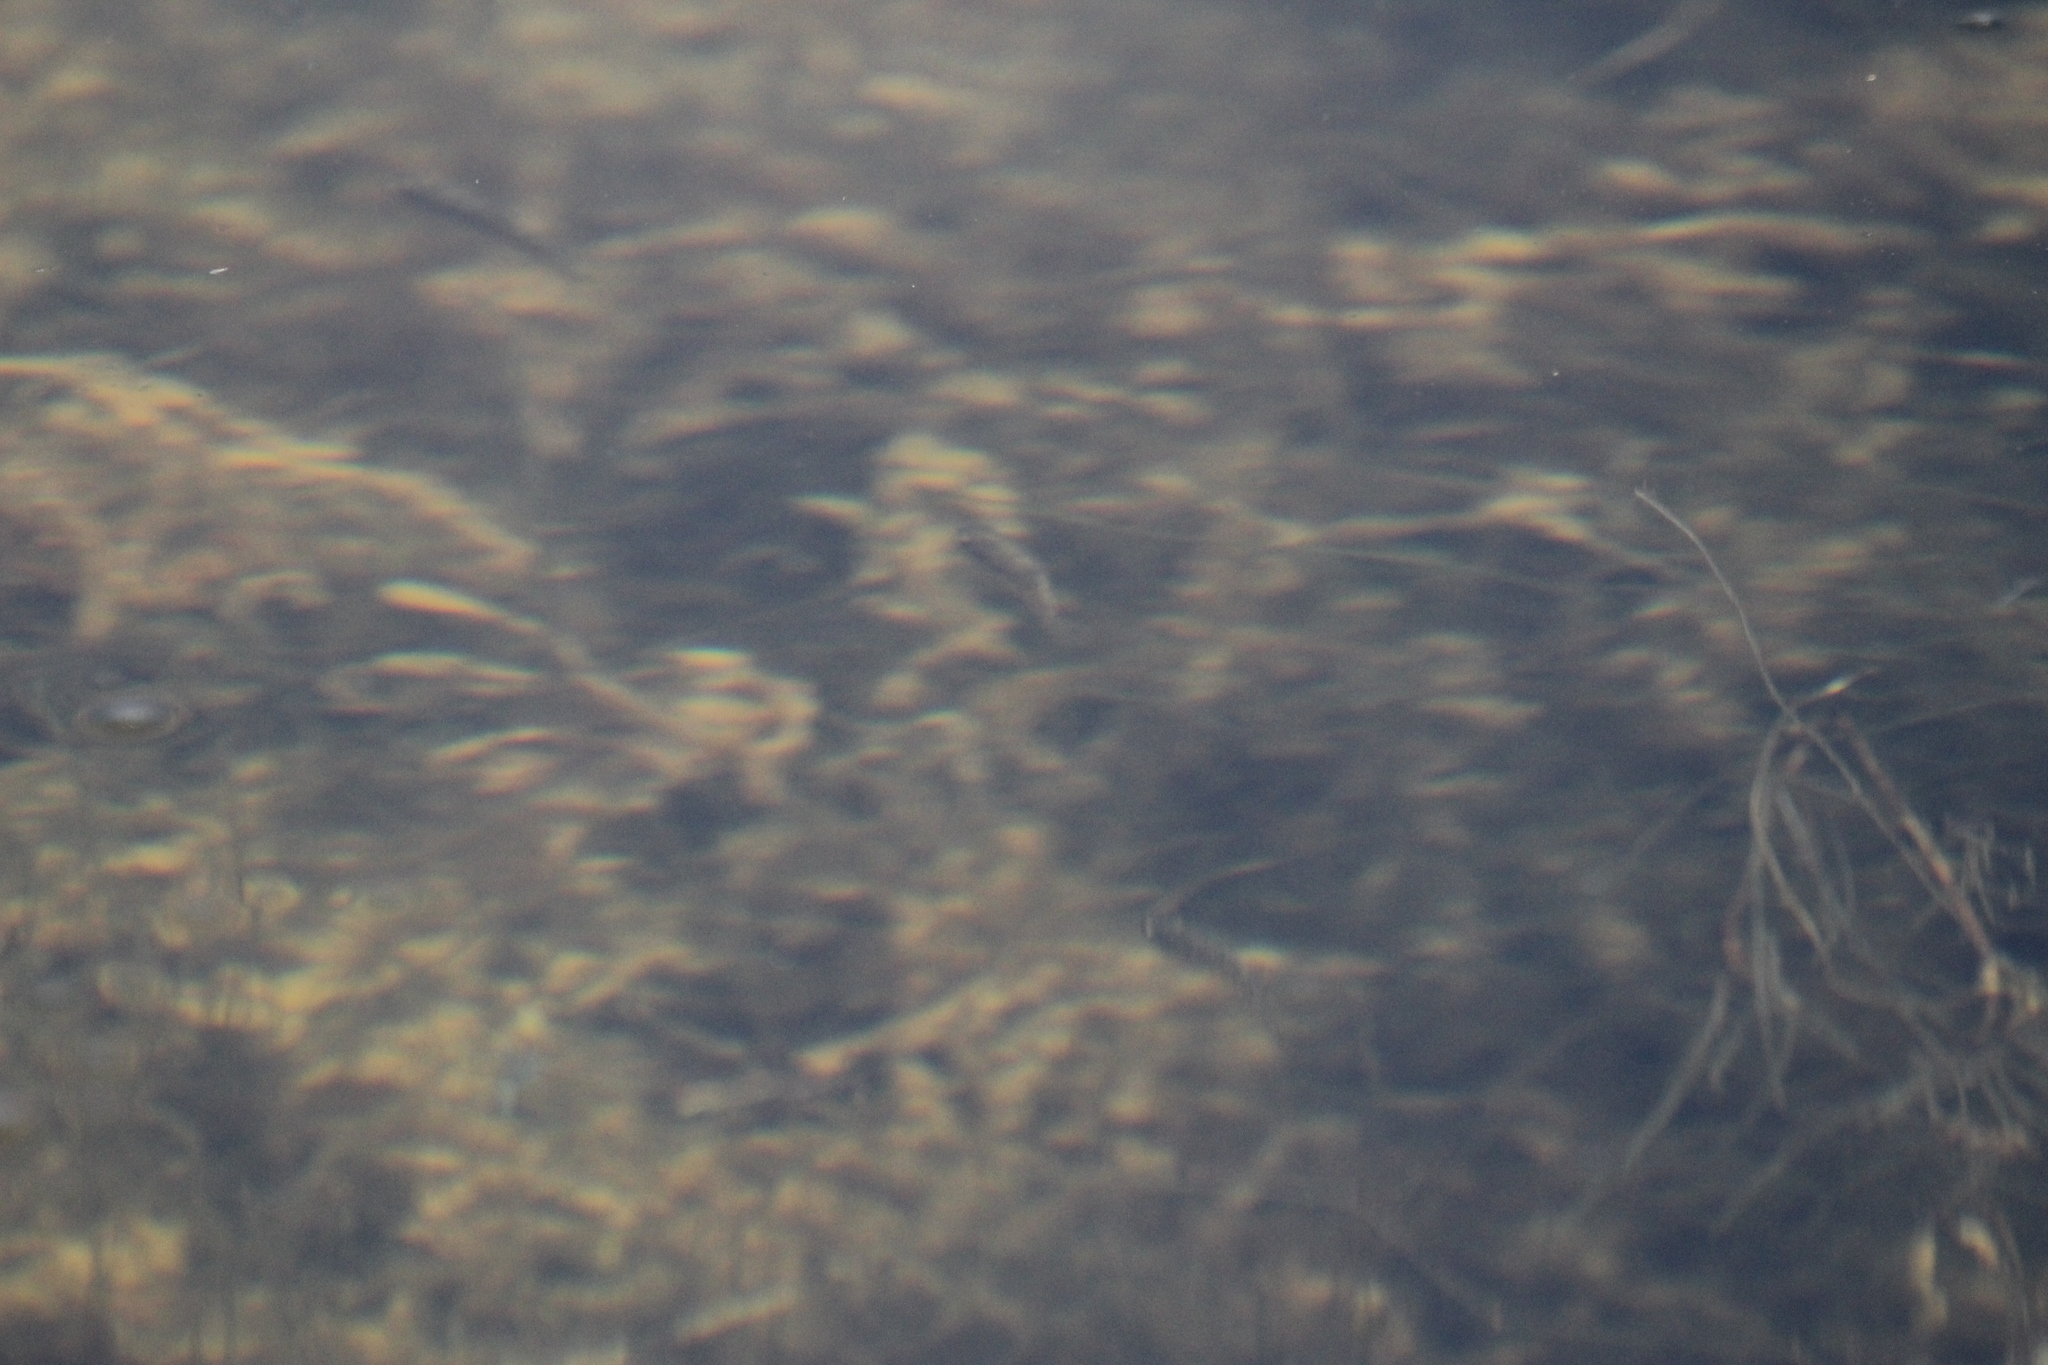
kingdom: Animalia
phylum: Chordata
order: Cyprinodontiformes
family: Cyprinodontidae
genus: Cyprinodon
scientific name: Cyprinodon eremus
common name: Sonoyta pupfish
